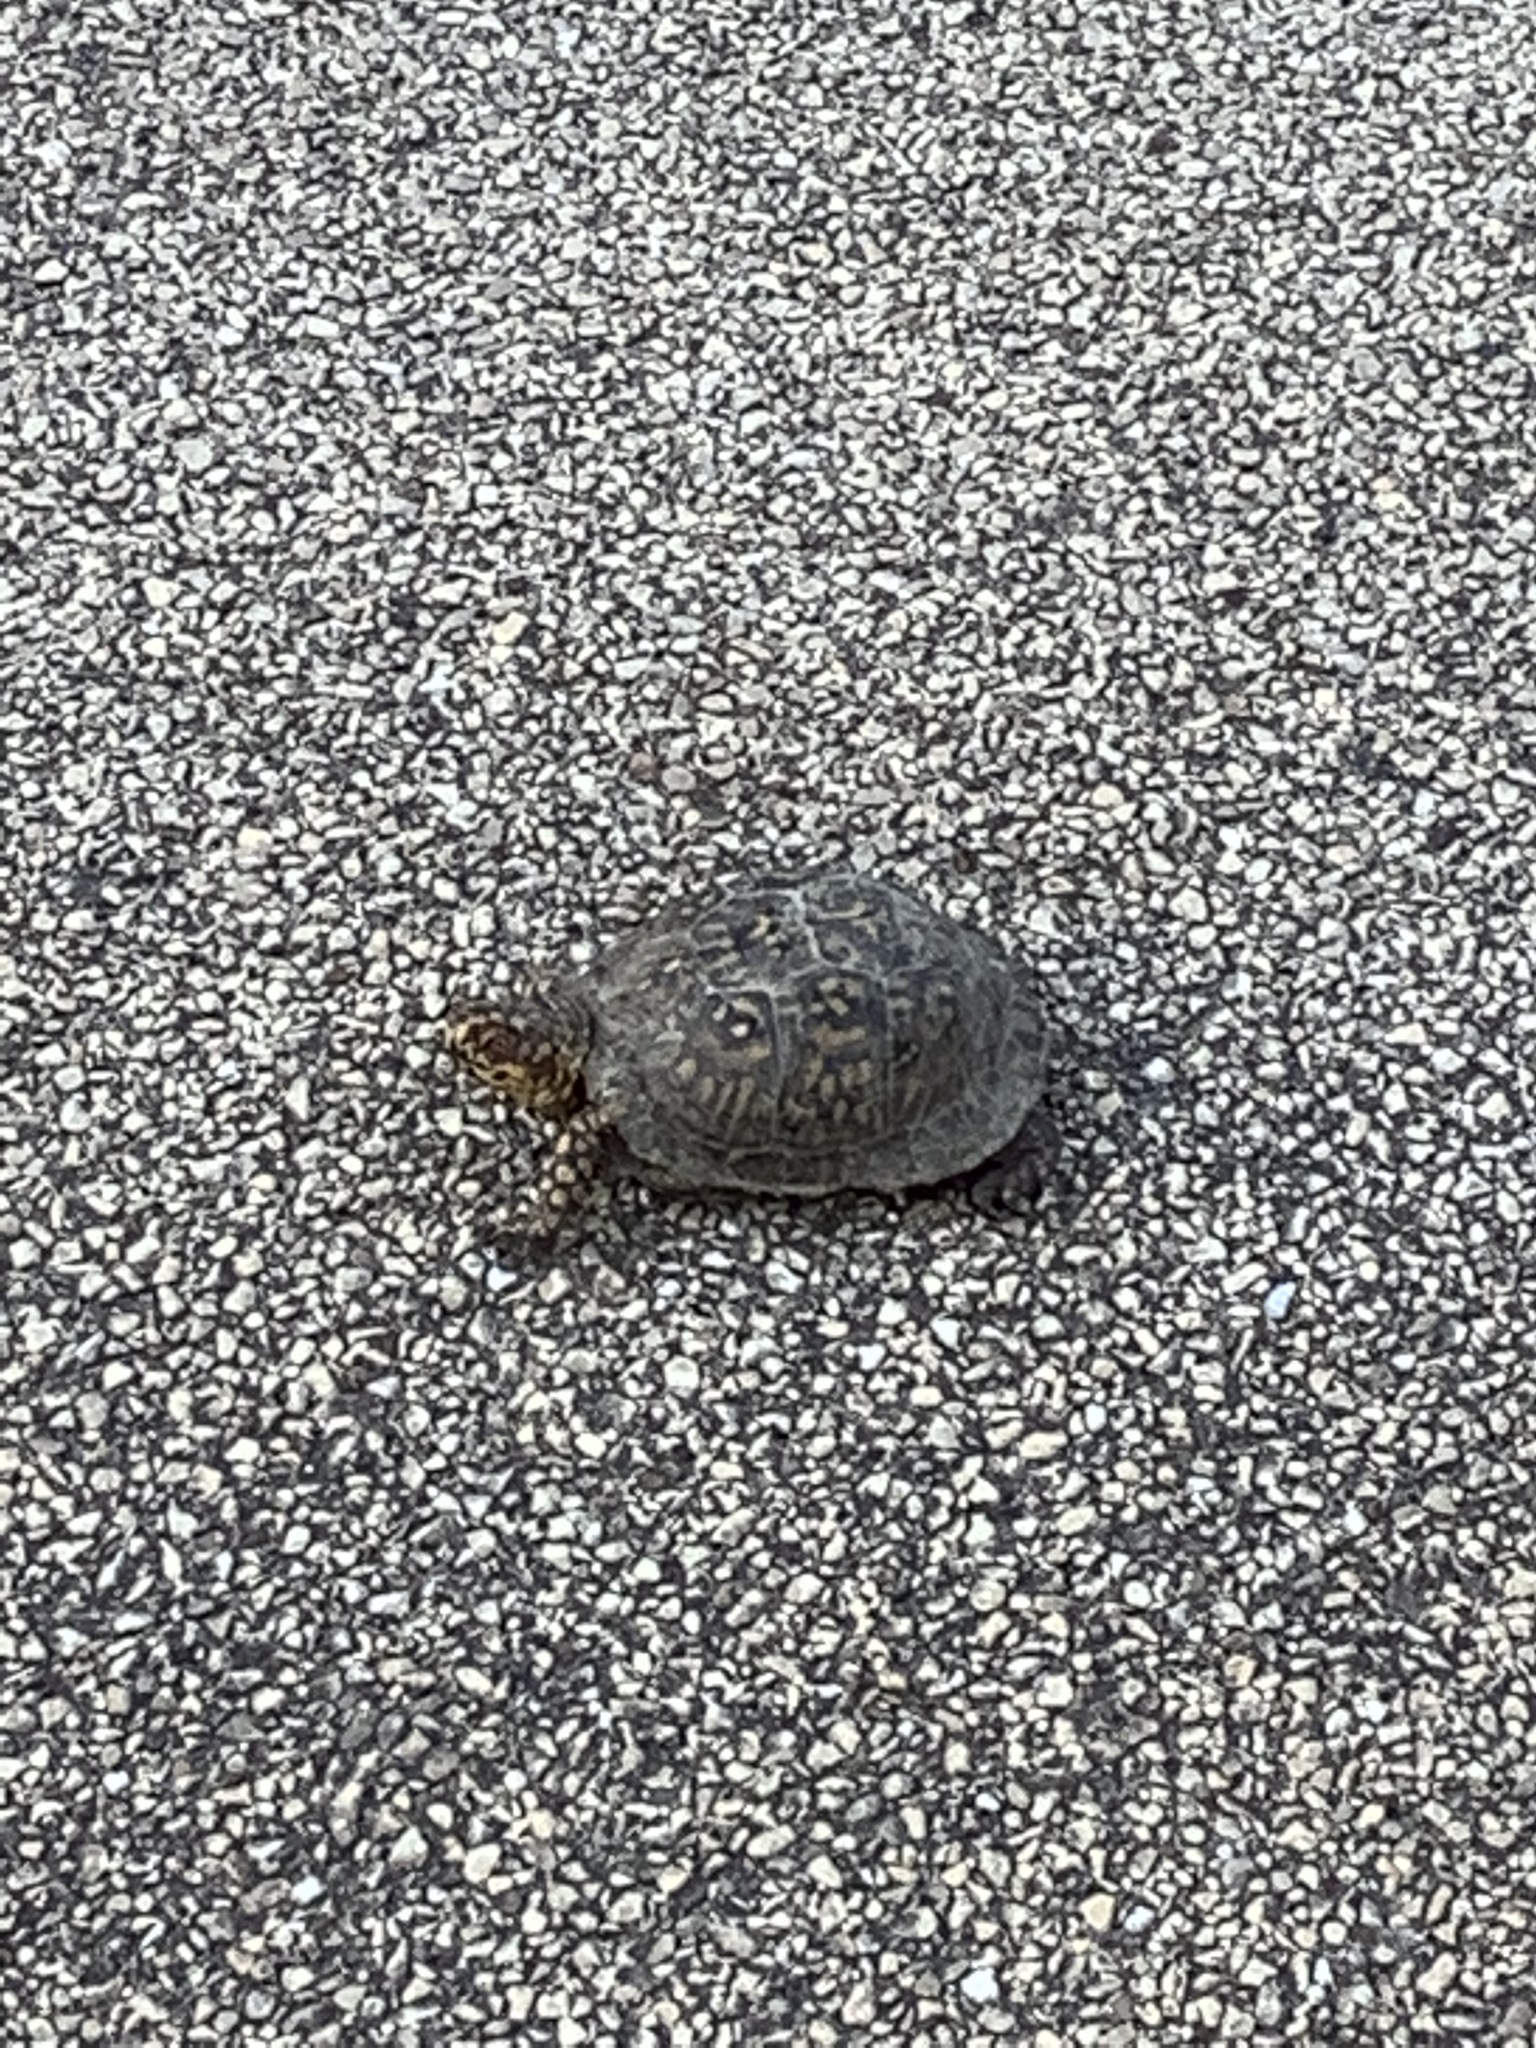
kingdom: Animalia
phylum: Chordata
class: Testudines
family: Emydidae
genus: Terrapene
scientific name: Terrapene carolina
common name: Common box turtle
